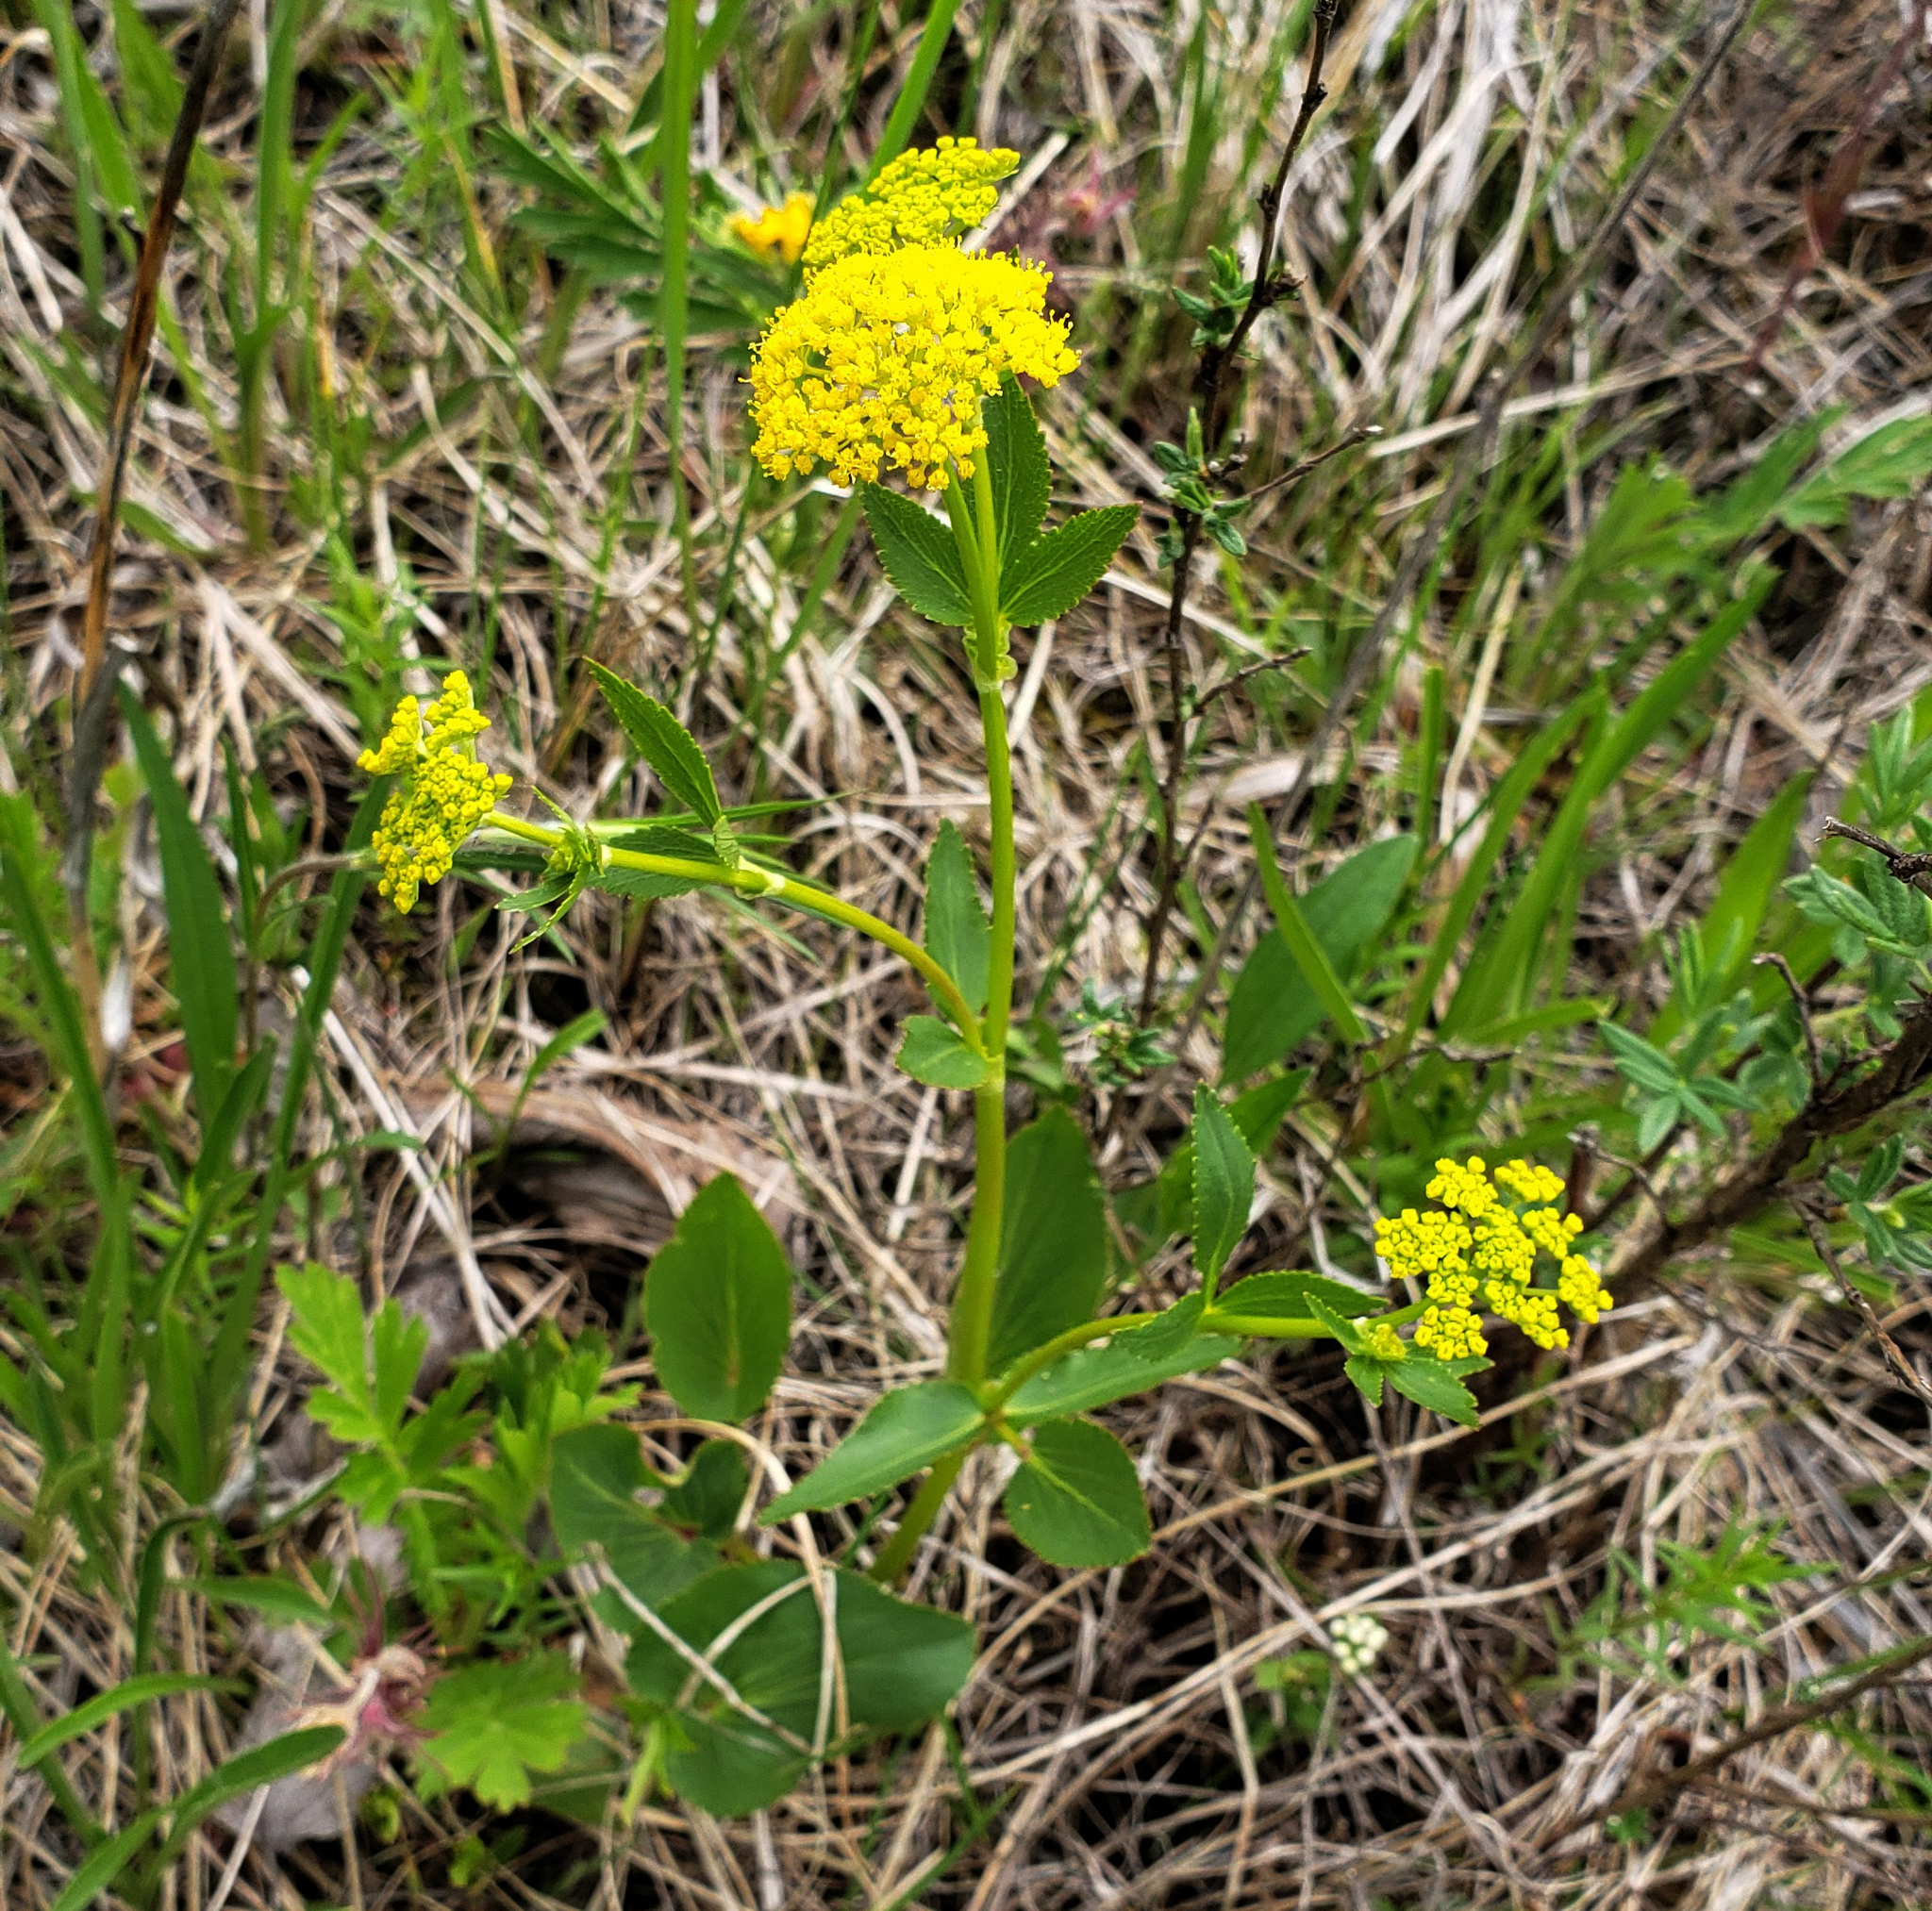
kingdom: Plantae
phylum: Tracheophyta
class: Magnoliopsida
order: Apiales
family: Apiaceae
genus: Zizia
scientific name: Zizia aptera
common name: Heart-leaved alexanders
